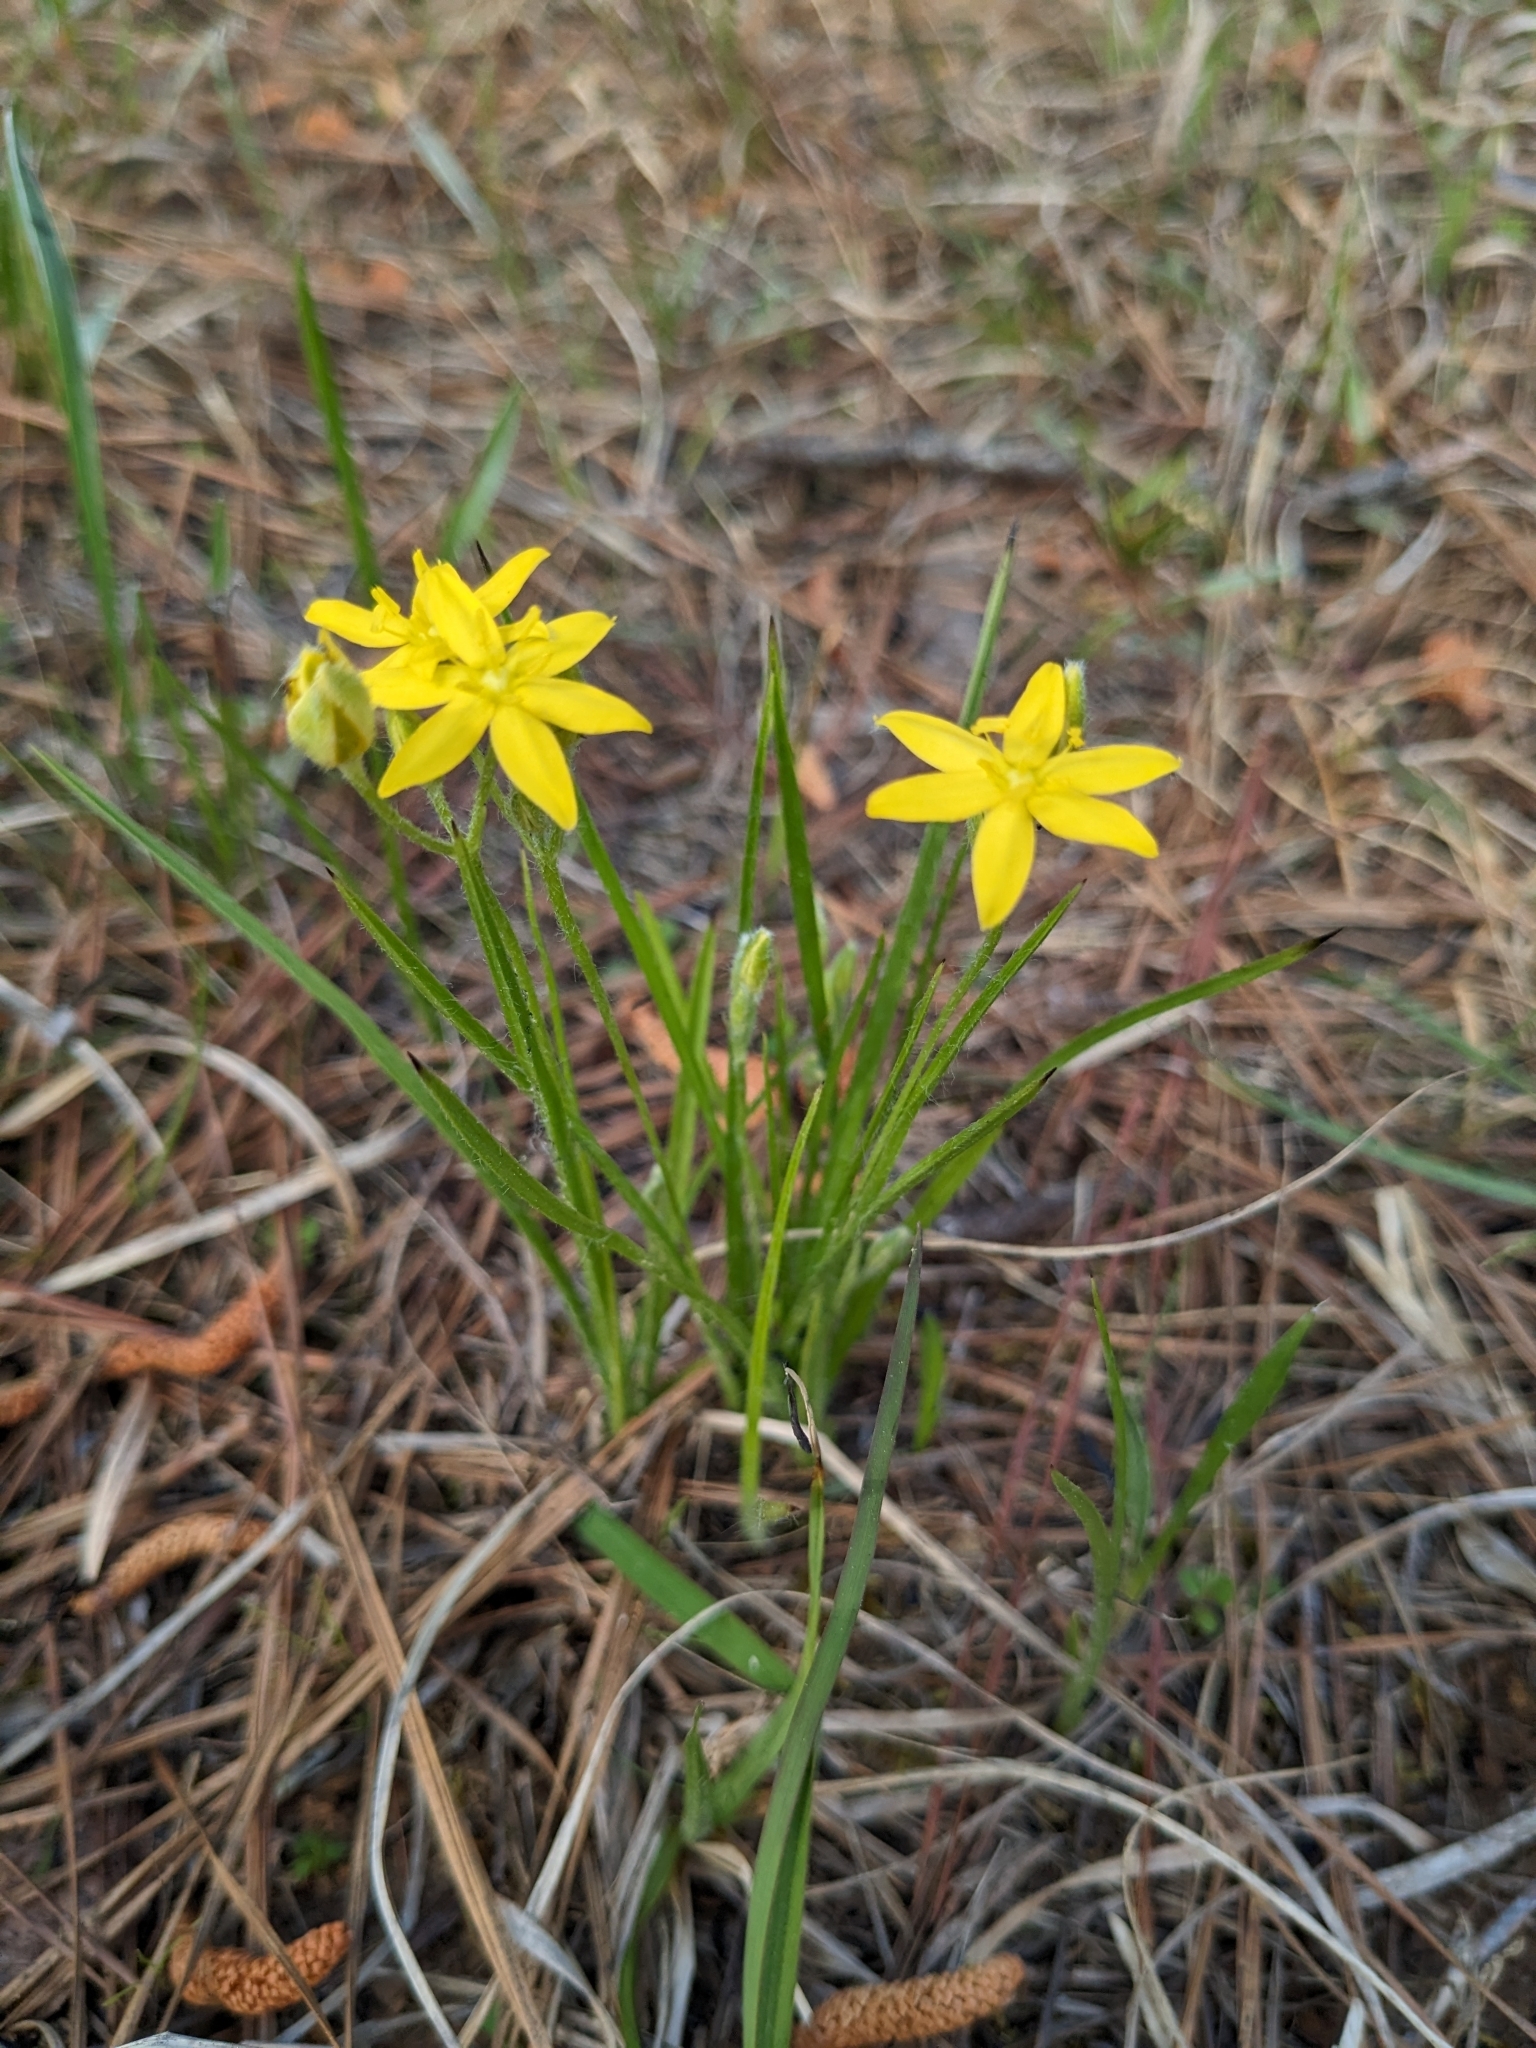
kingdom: Plantae
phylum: Tracheophyta
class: Liliopsida
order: Asparagales
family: Hypoxidaceae
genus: Hypoxis
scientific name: Hypoxis hirsuta
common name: Common goldstar
